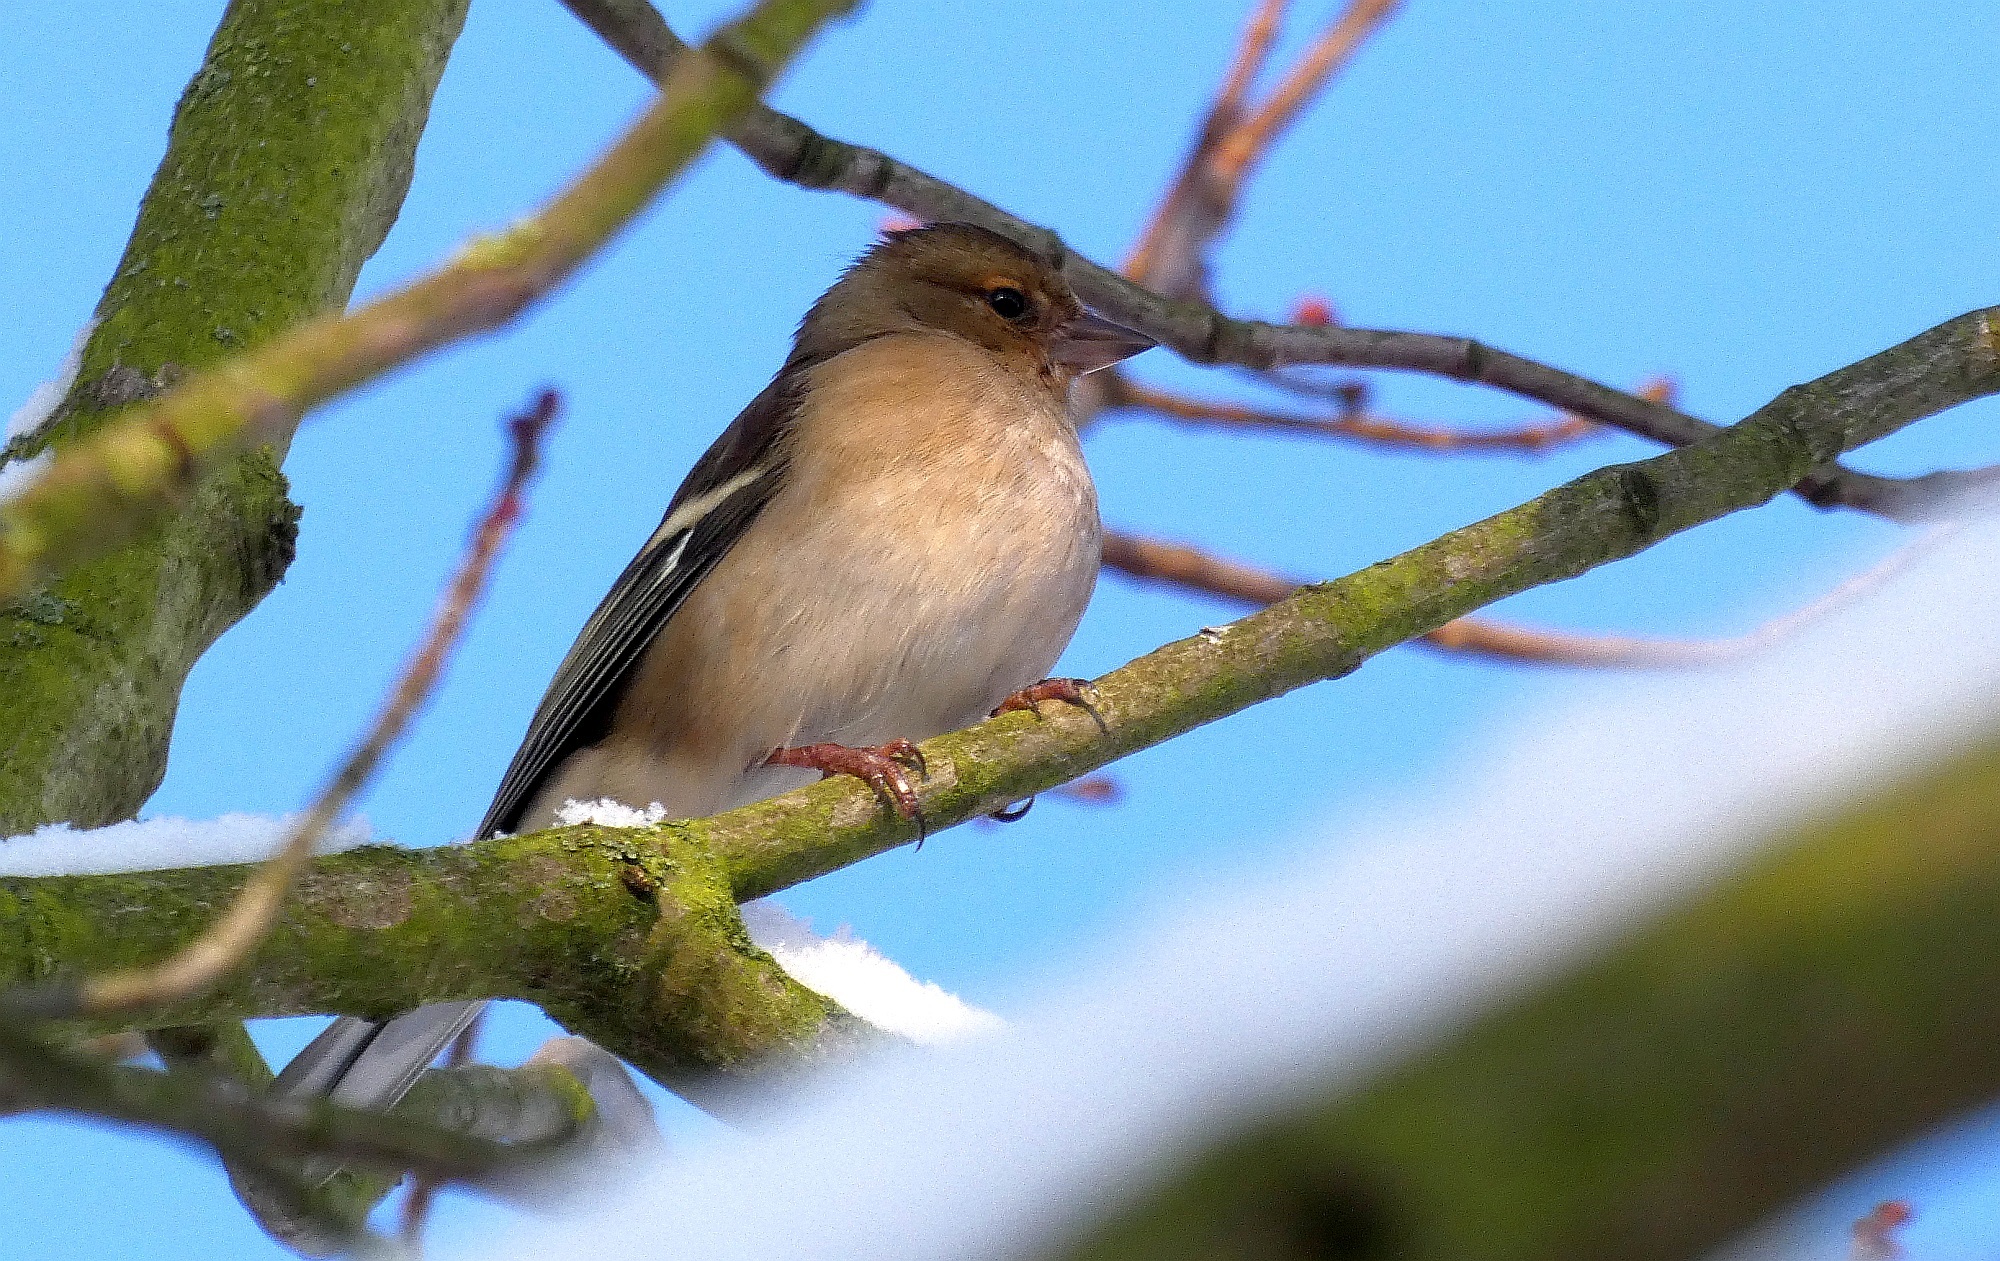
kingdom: Animalia
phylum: Chordata
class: Aves
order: Passeriformes
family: Fringillidae
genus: Fringilla
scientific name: Fringilla coelebs
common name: Common chaffinch
